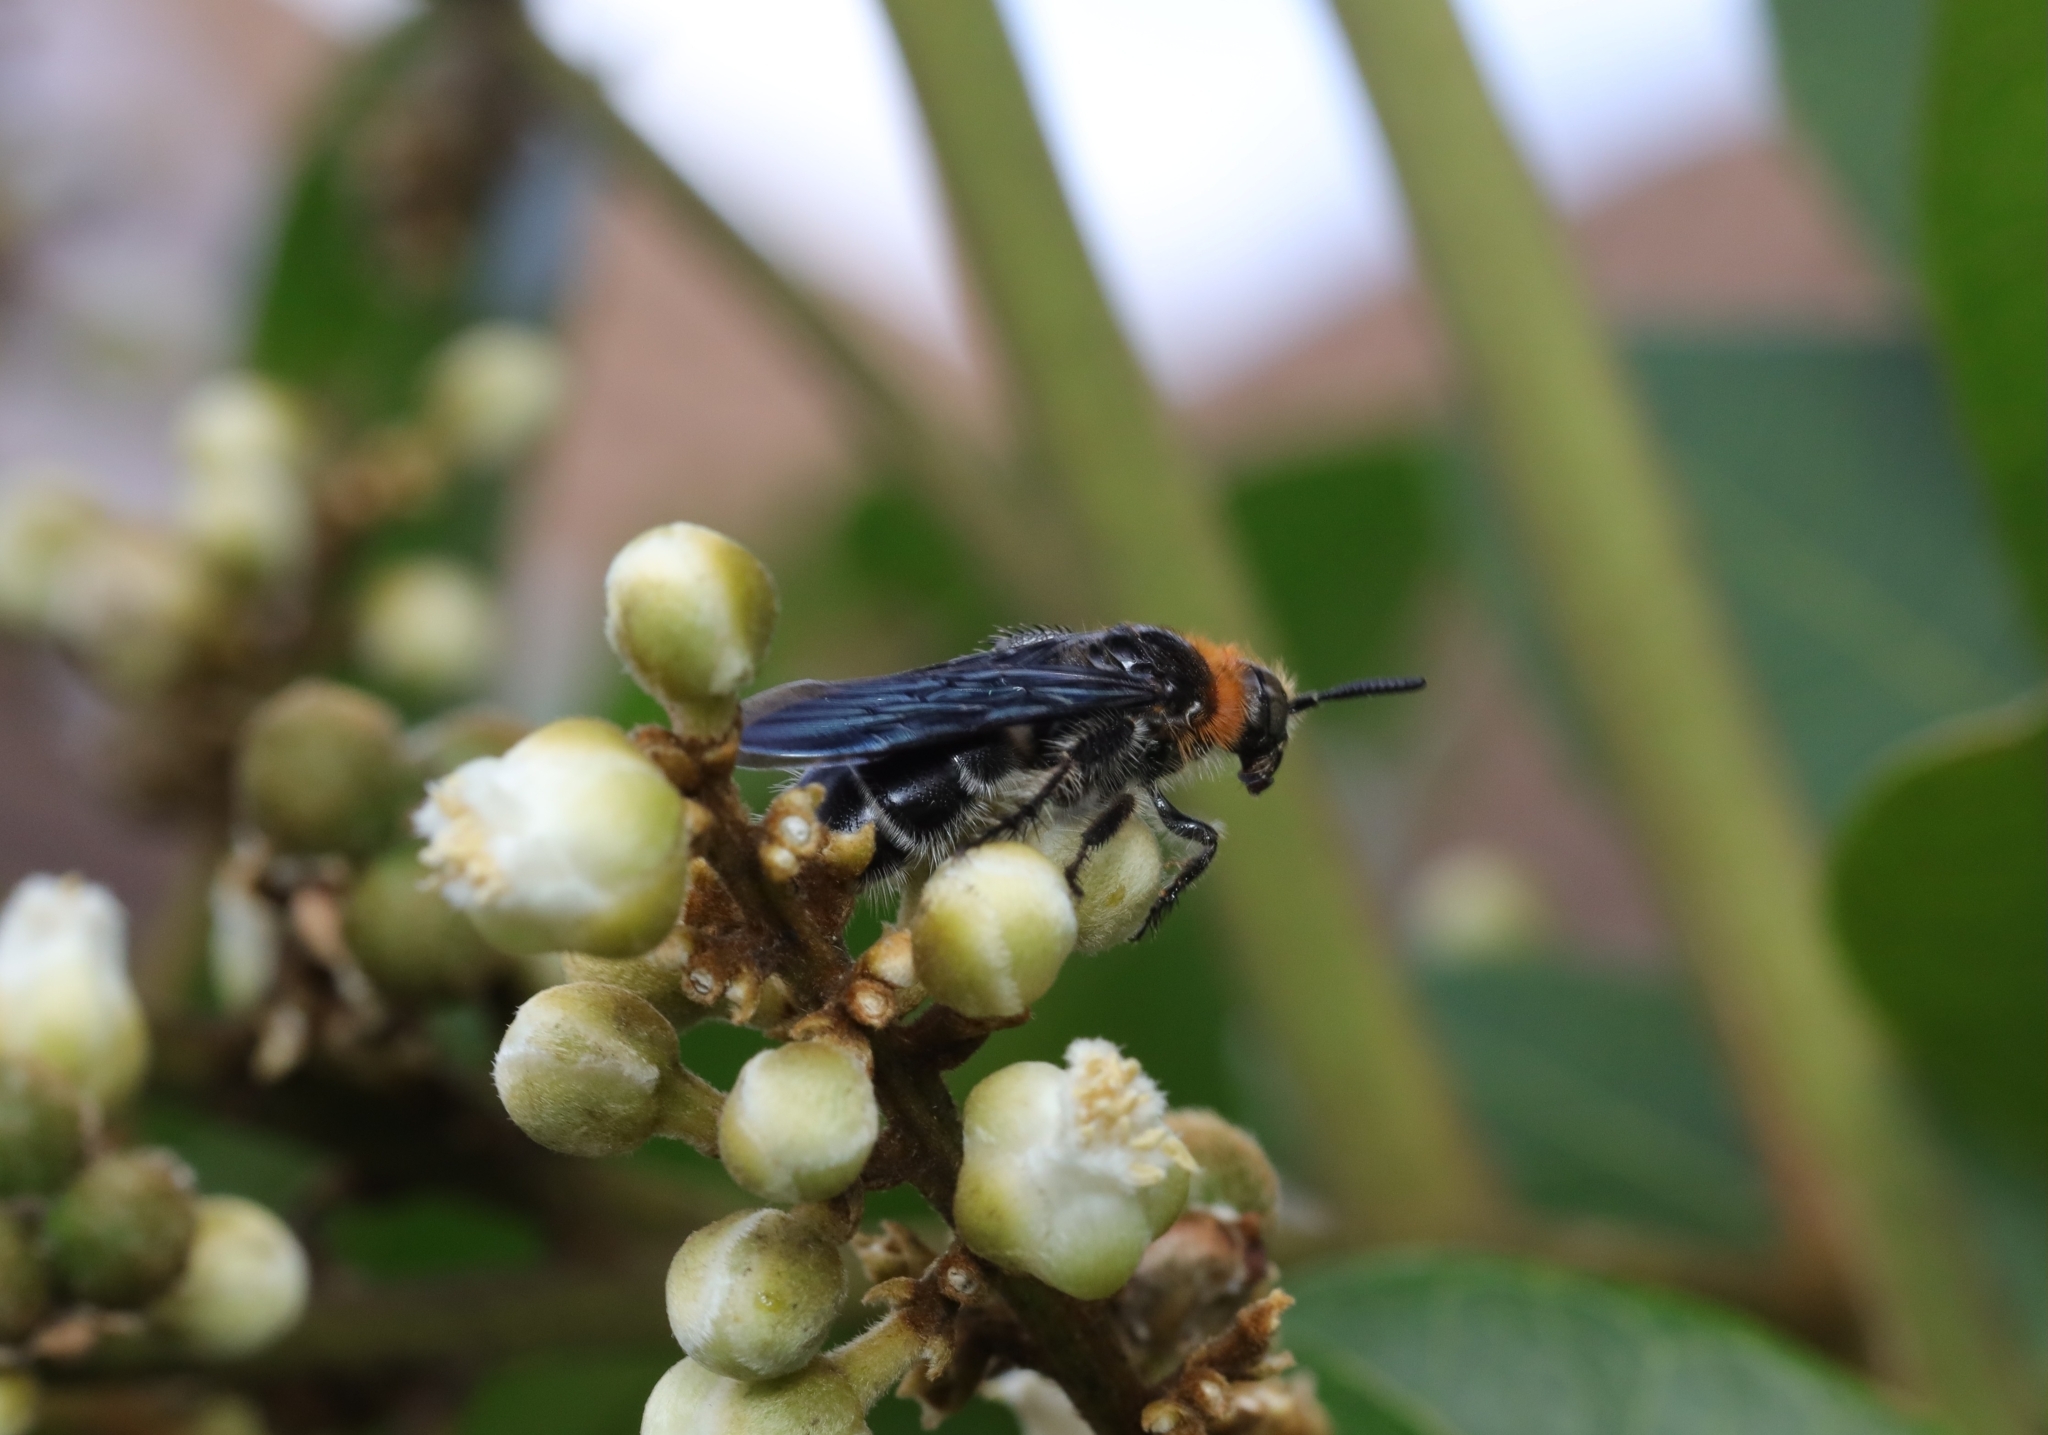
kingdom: Animalia
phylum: Arthropoda
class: Insecta
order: Hymenoptera
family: Scoliidae
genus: Cathimeris
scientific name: Cathimeris
